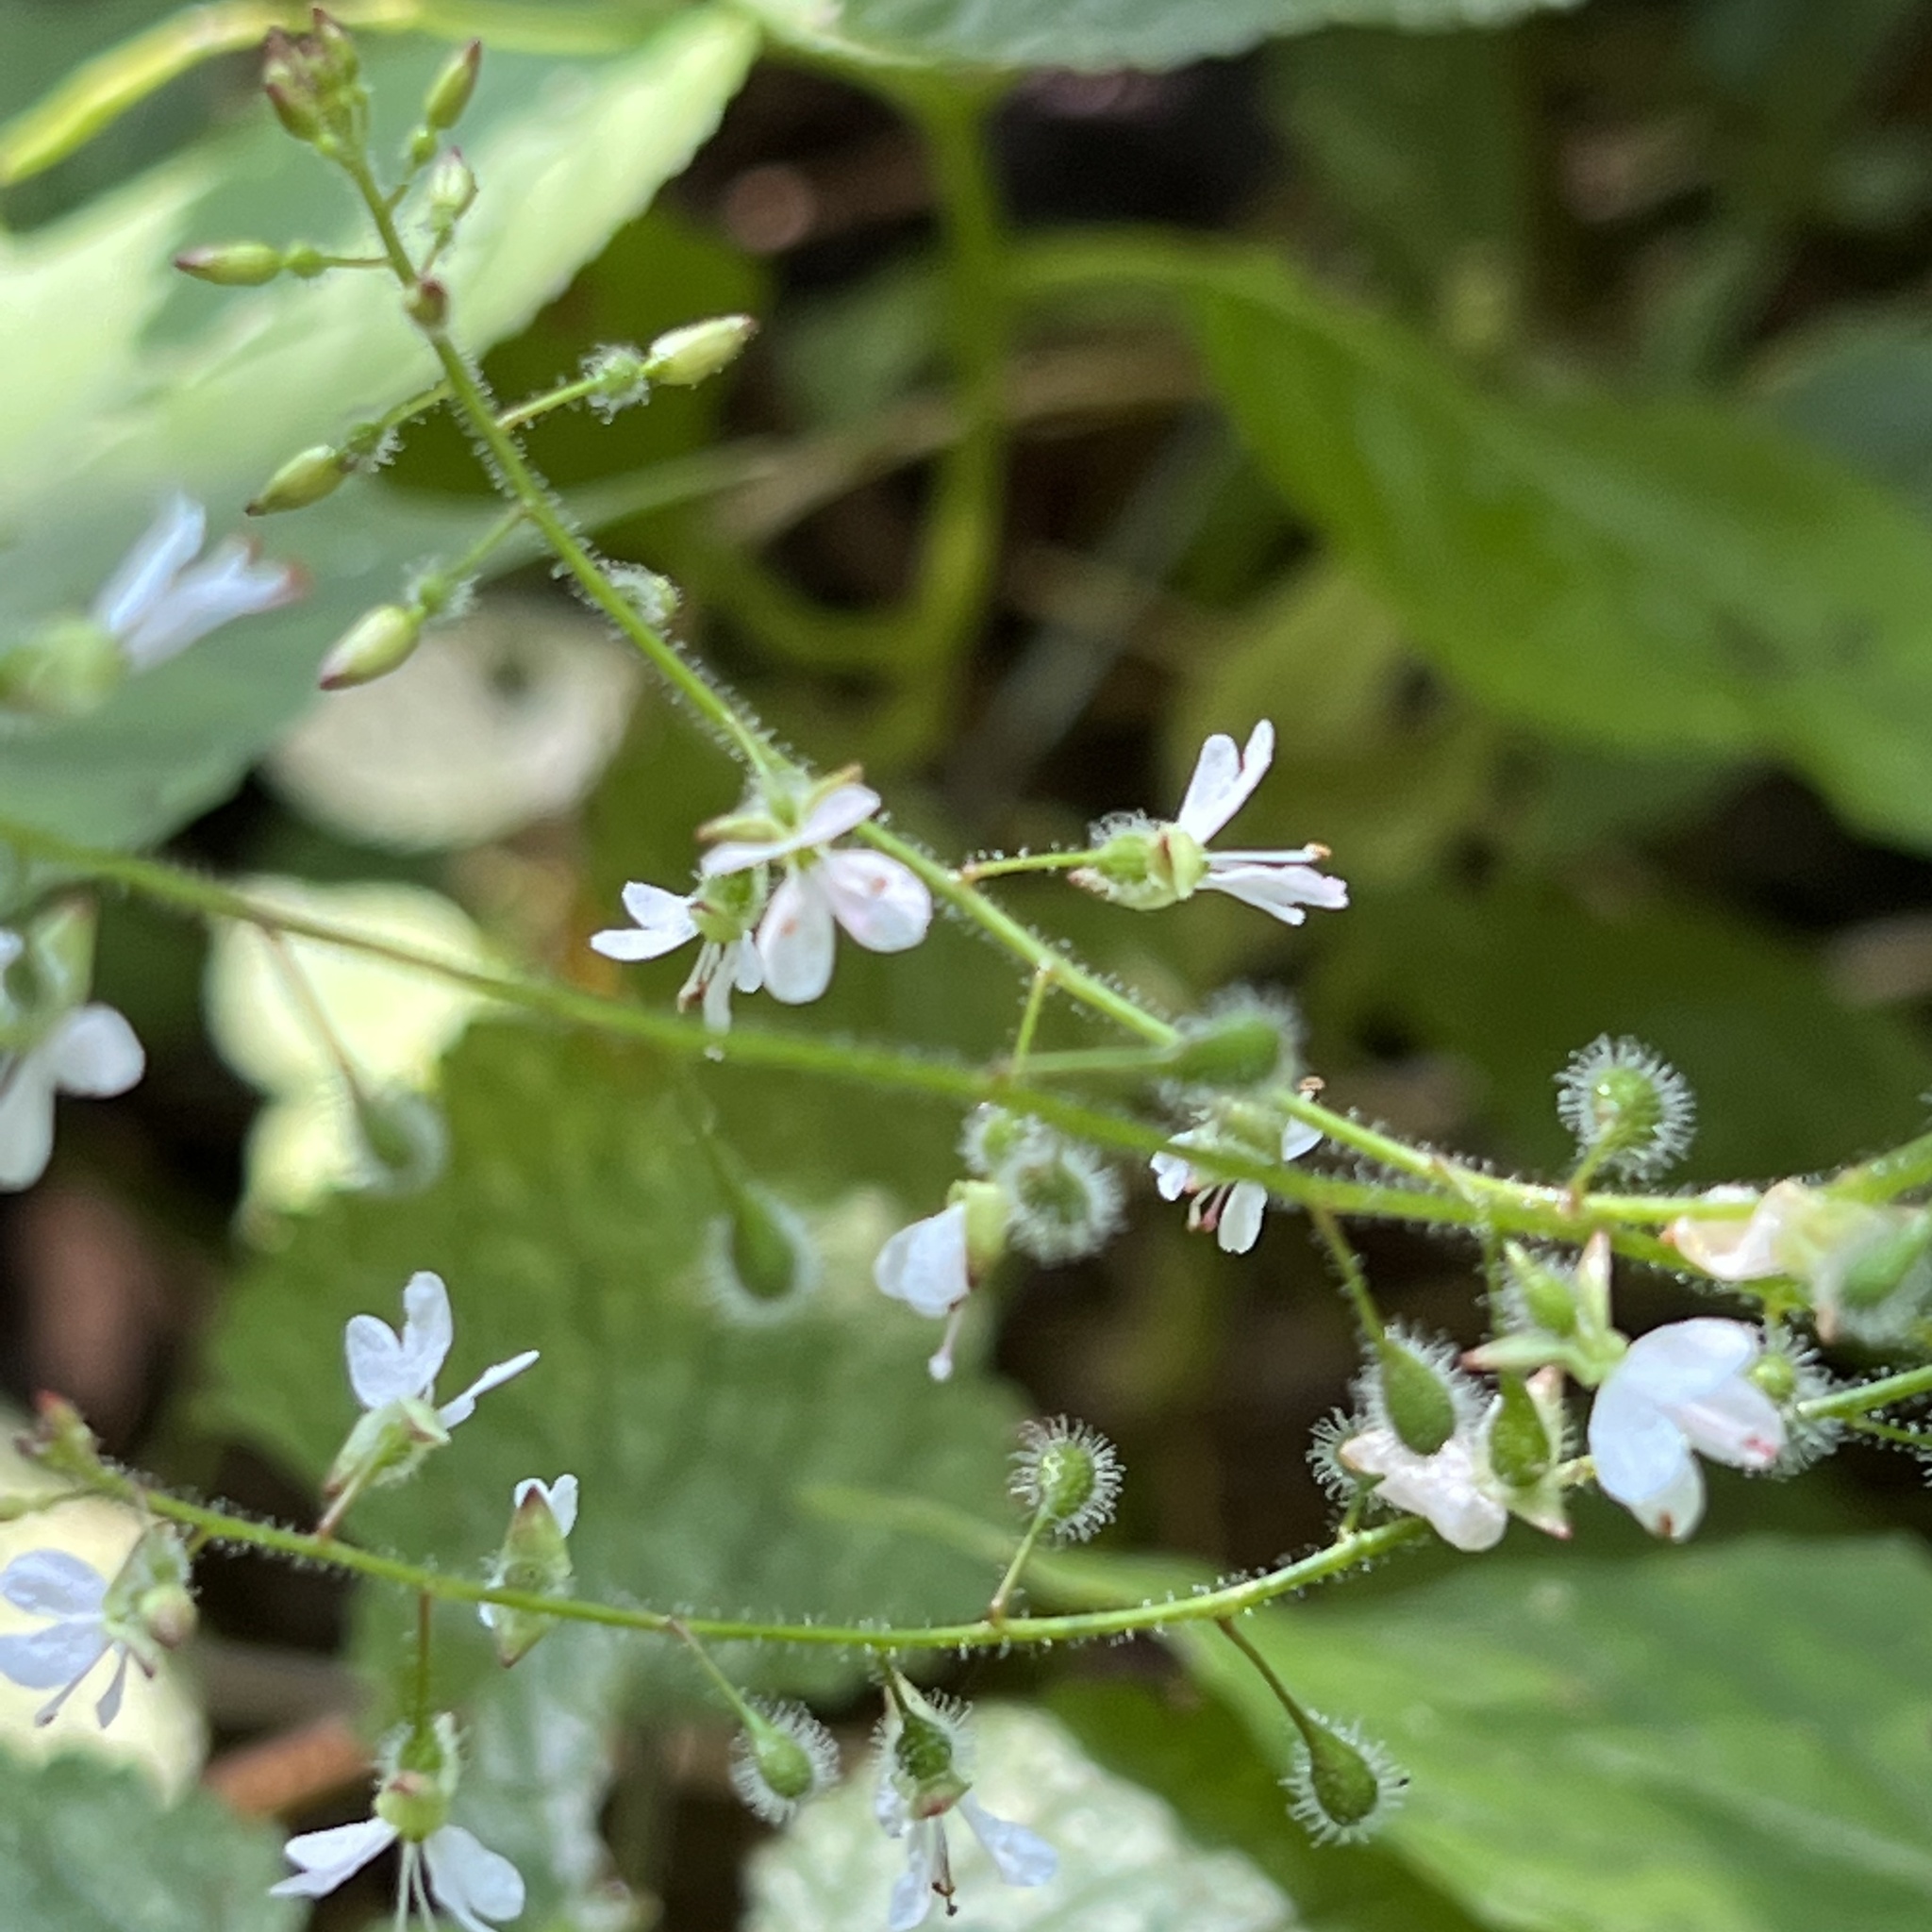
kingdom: Plantae
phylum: Tracheophyta
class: Magnoliopsida
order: Myrtales
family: Onagraceae
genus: Circaea
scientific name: Circaea lutetiana
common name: Enchanter's-nightshade
